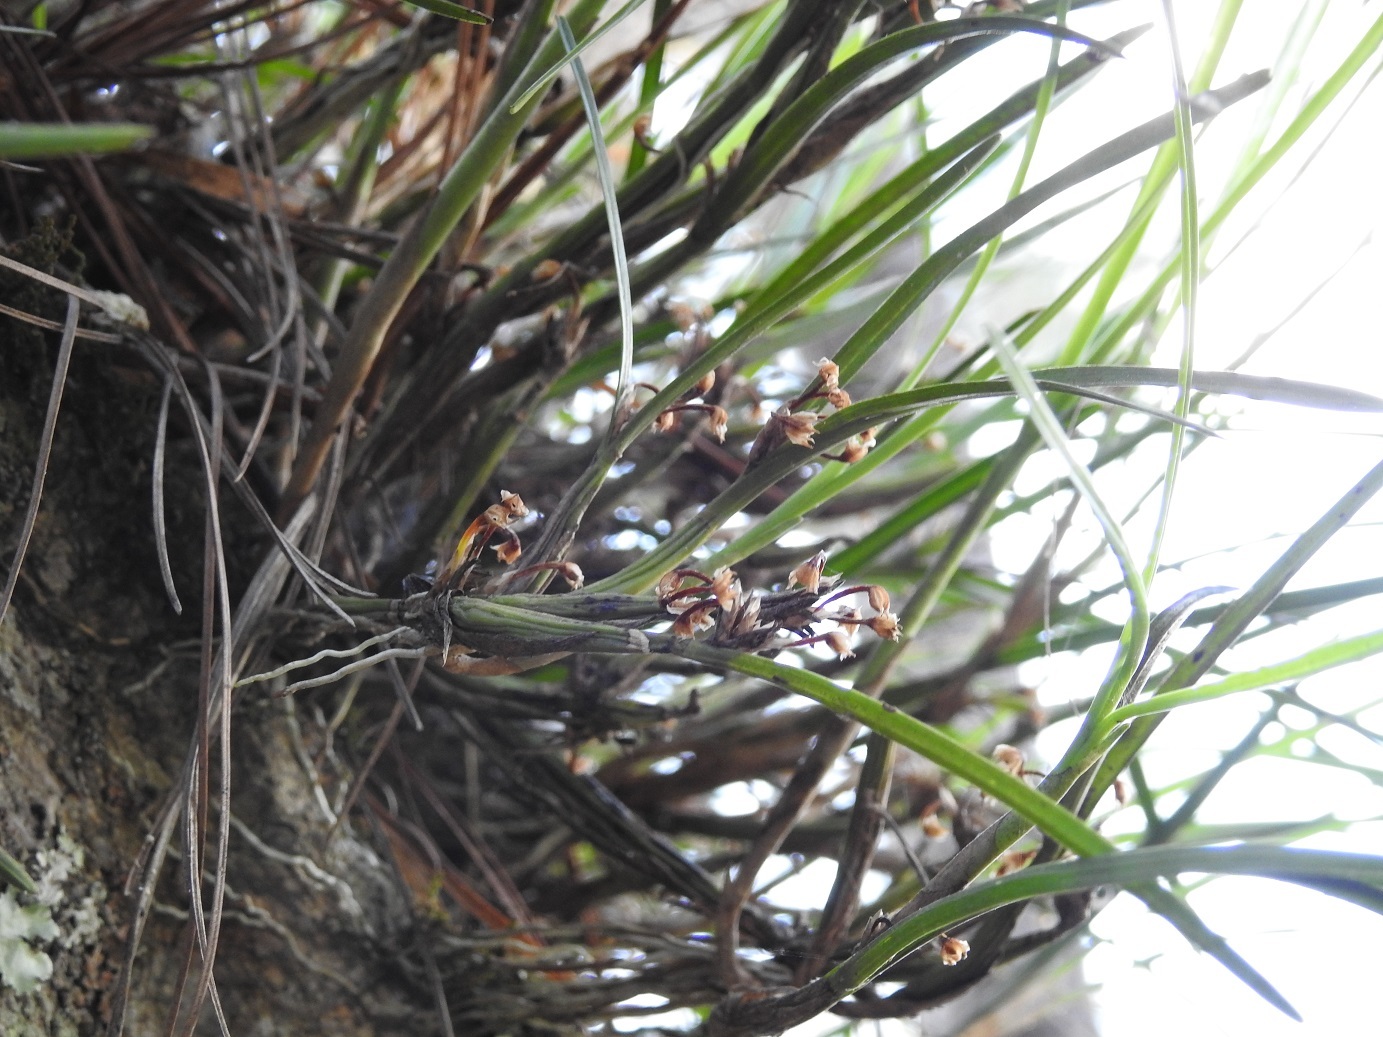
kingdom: Plantae
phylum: Tracheophyta
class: Liliopsida
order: Asparagales
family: Orchidaceae
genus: Scaphyglottis
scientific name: Scaphyglottis fasciculata
